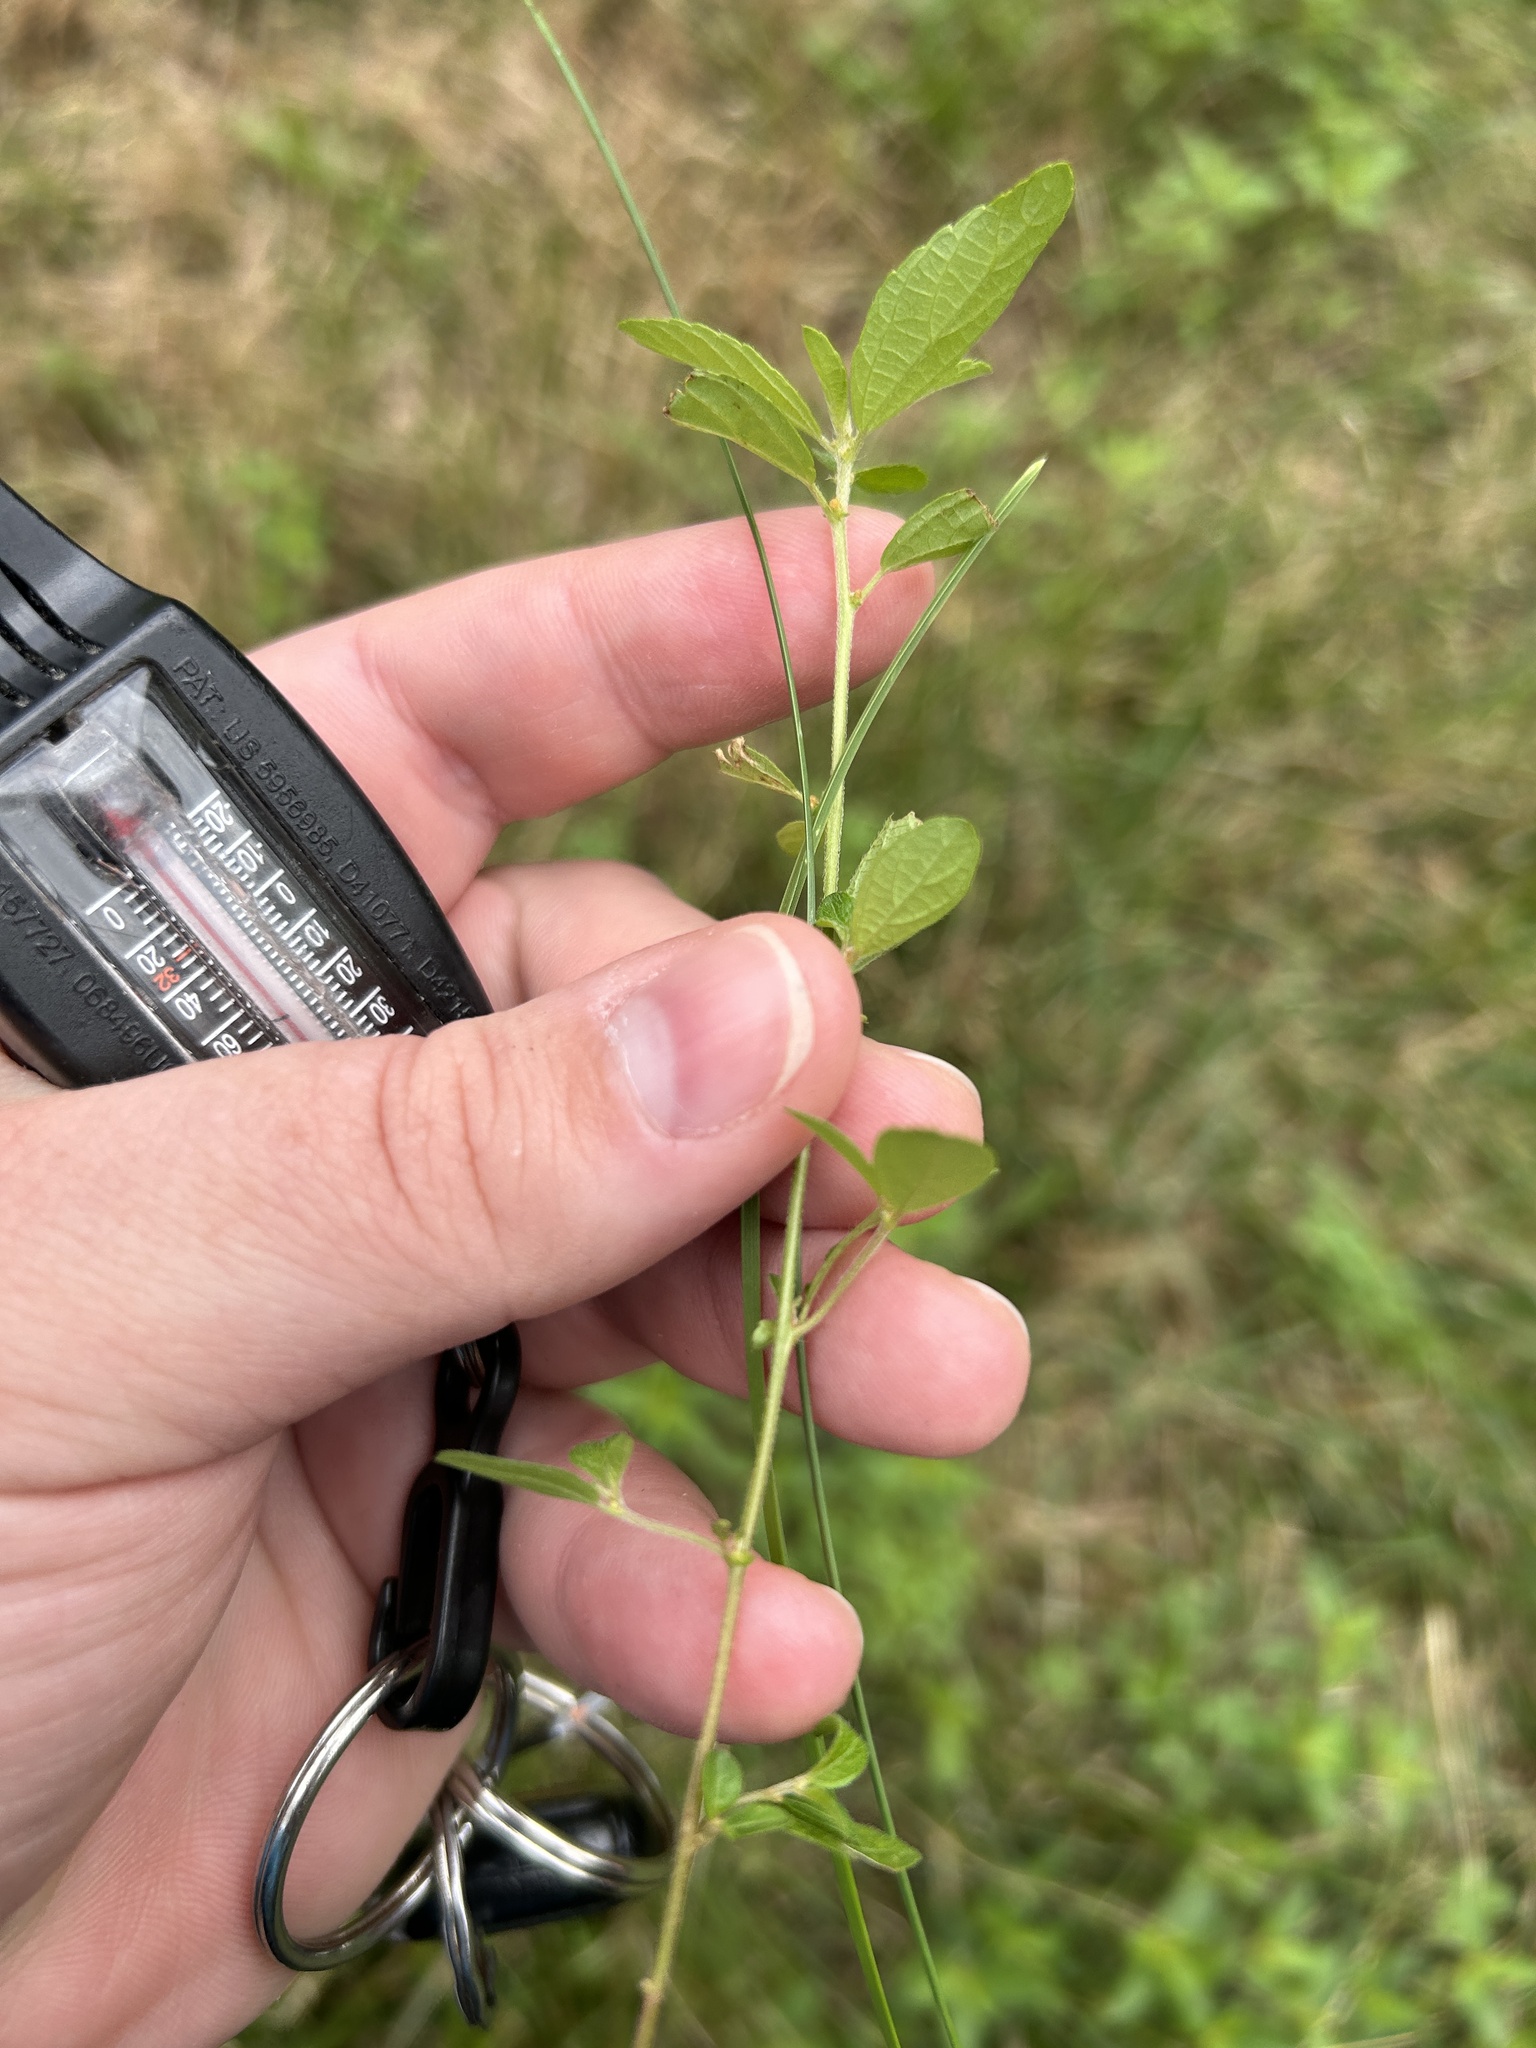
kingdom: Plantae
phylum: Tracheophyta
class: Magnoliopsida
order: Malpighiales
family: Euphorbiaceae
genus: Acalypha
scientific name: Acalypha virginica
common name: Virginia copperleaf
